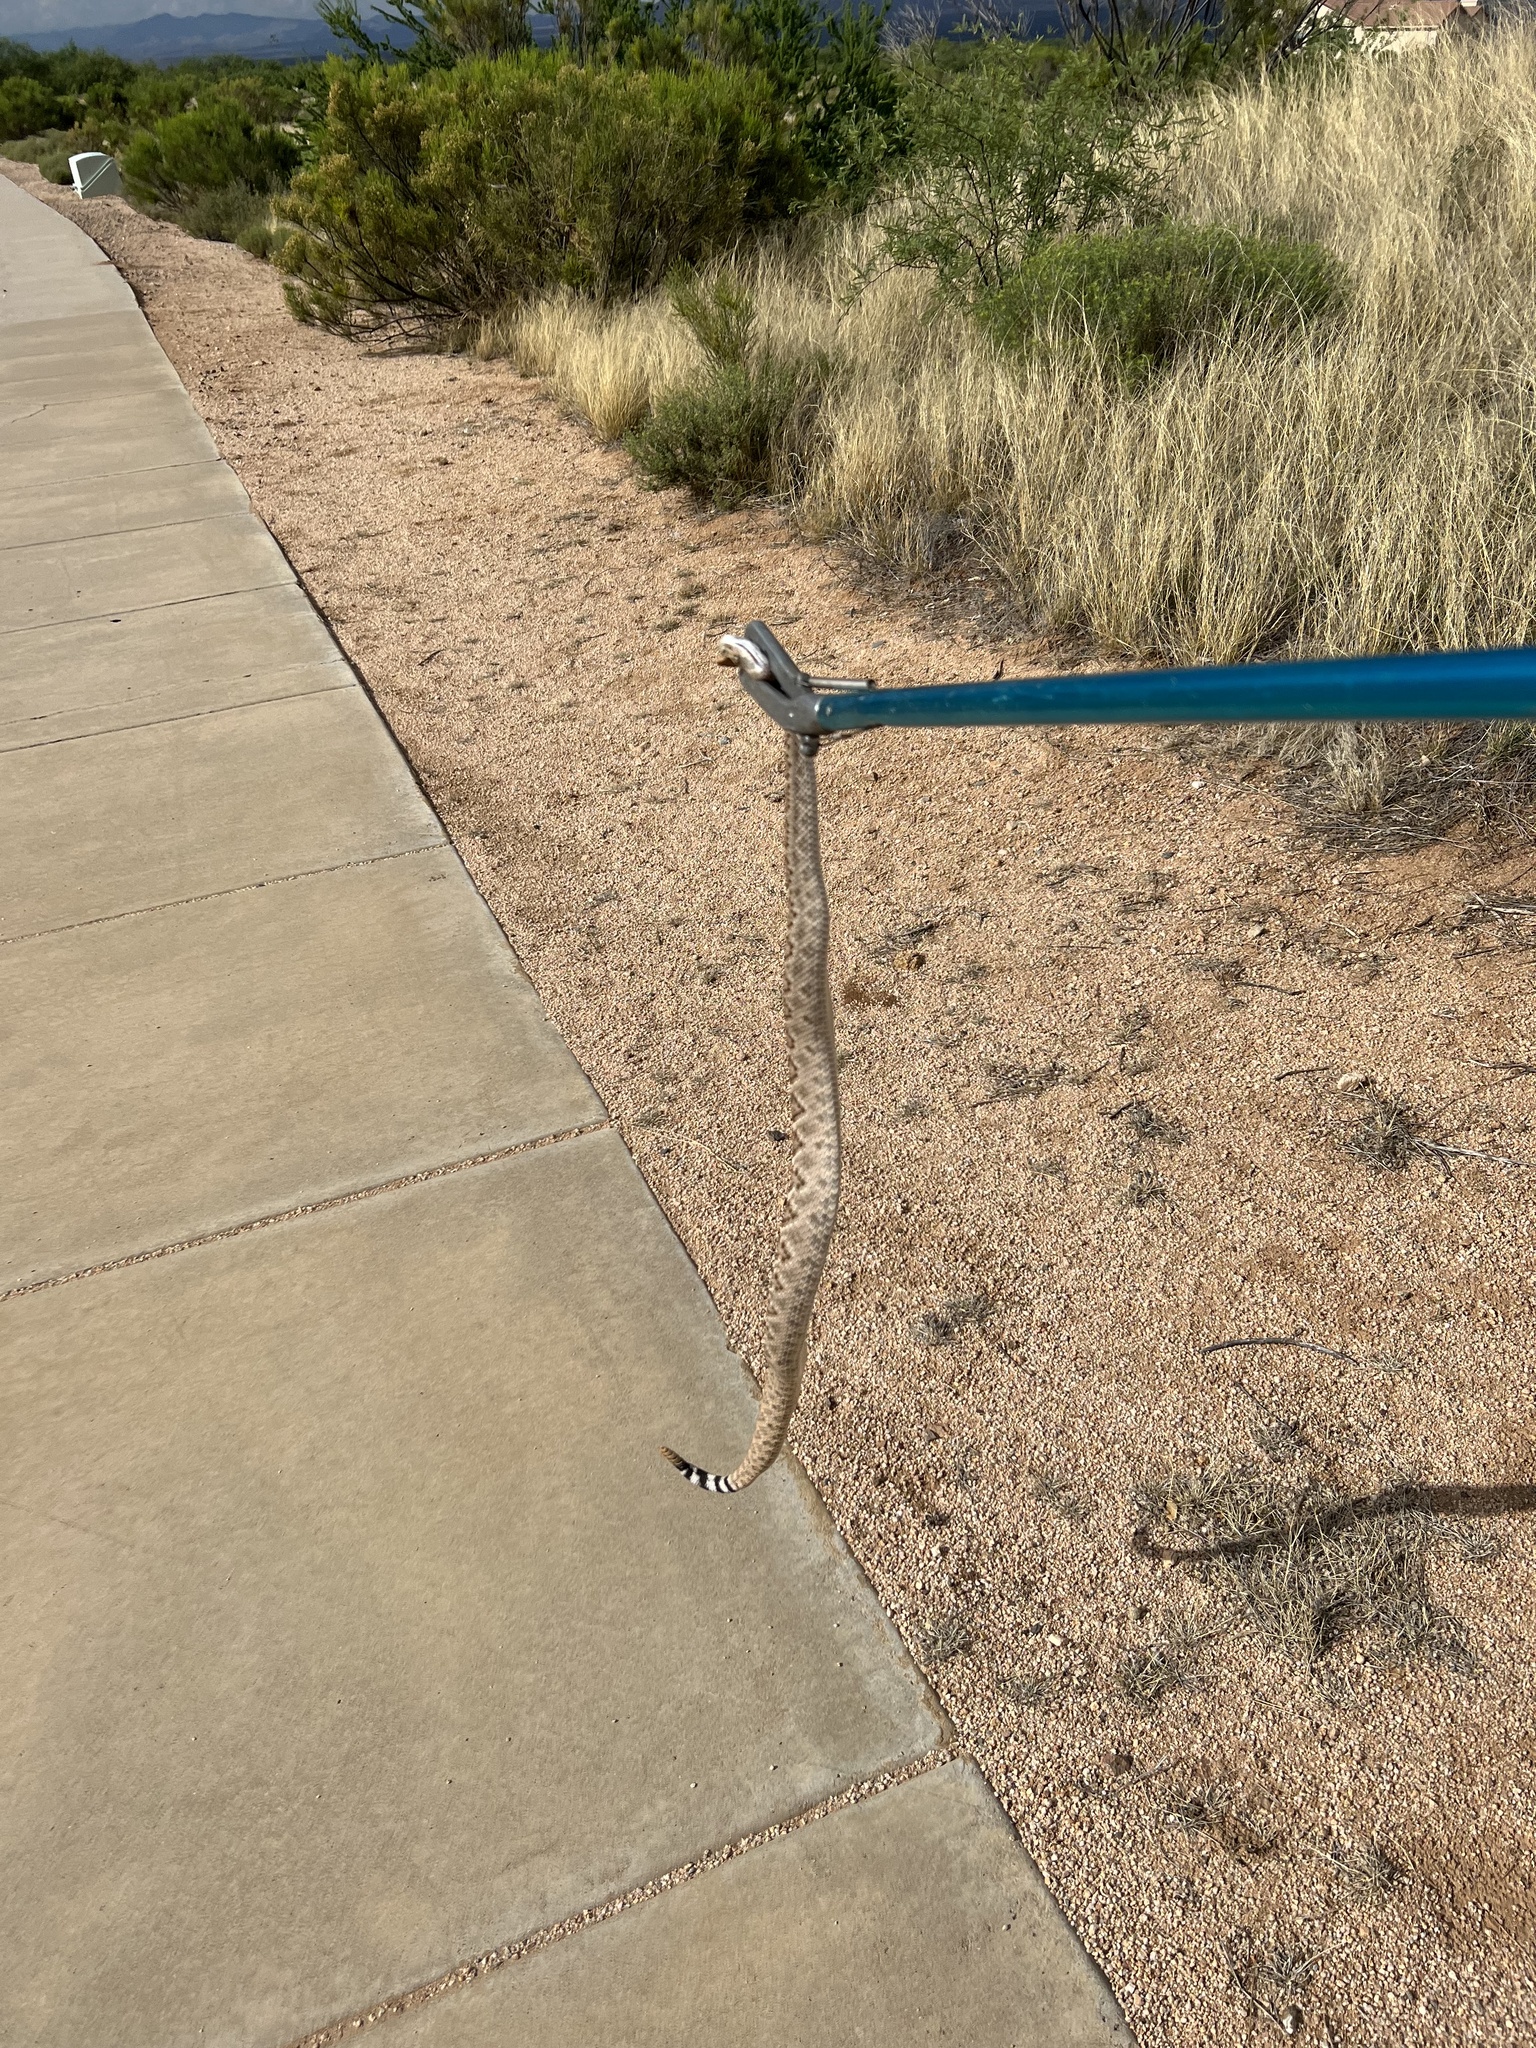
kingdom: Animalia
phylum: Chordata
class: Squamata
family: Viperidae
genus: Crotalus
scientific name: Crotalus atrox
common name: Western diamond-backed rattlesnake
